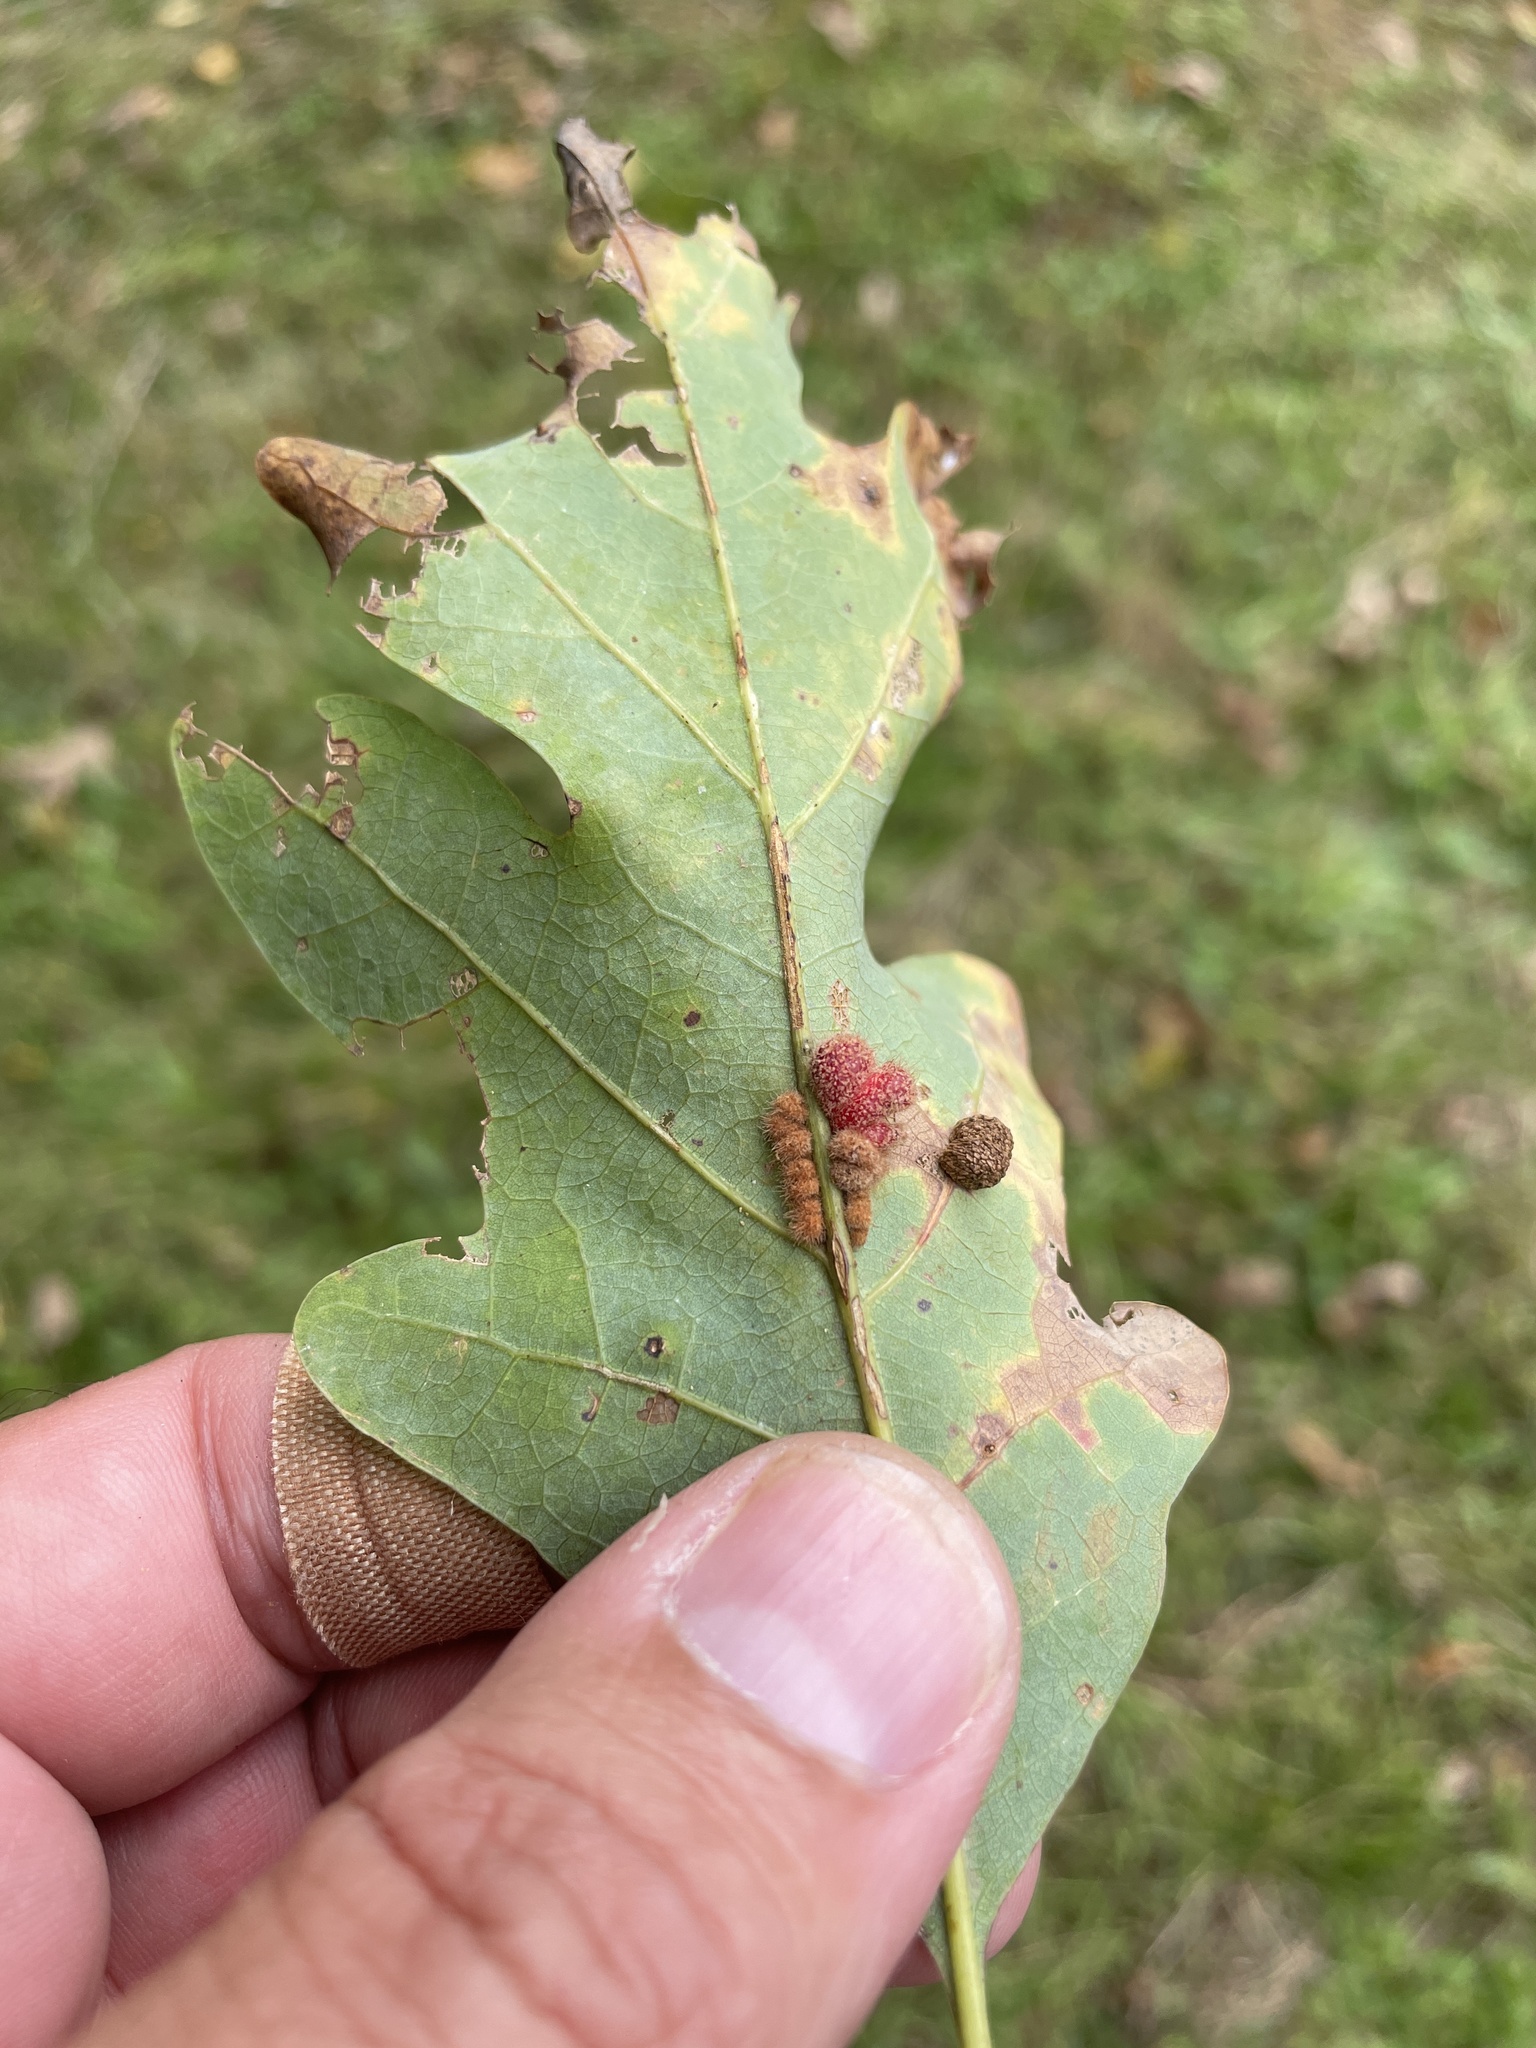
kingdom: Animalia
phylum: Arthropoda
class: Insecta
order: Hymenoptera
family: Cynipidae
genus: Andricus
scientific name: Andricus
